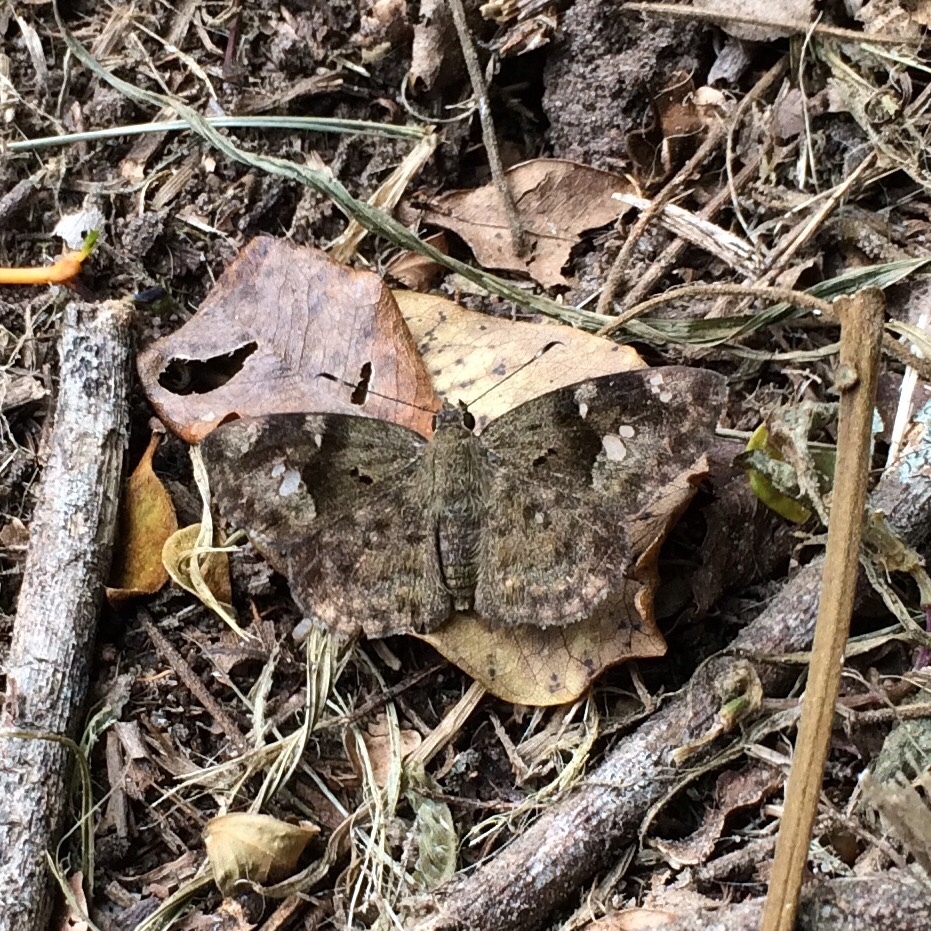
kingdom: Animalia
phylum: Arthropoda
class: Insecta
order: Lepidoptera
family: Hesperiidae
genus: Sarangesa
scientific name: Sarangesa motozi
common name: Forest elfin
